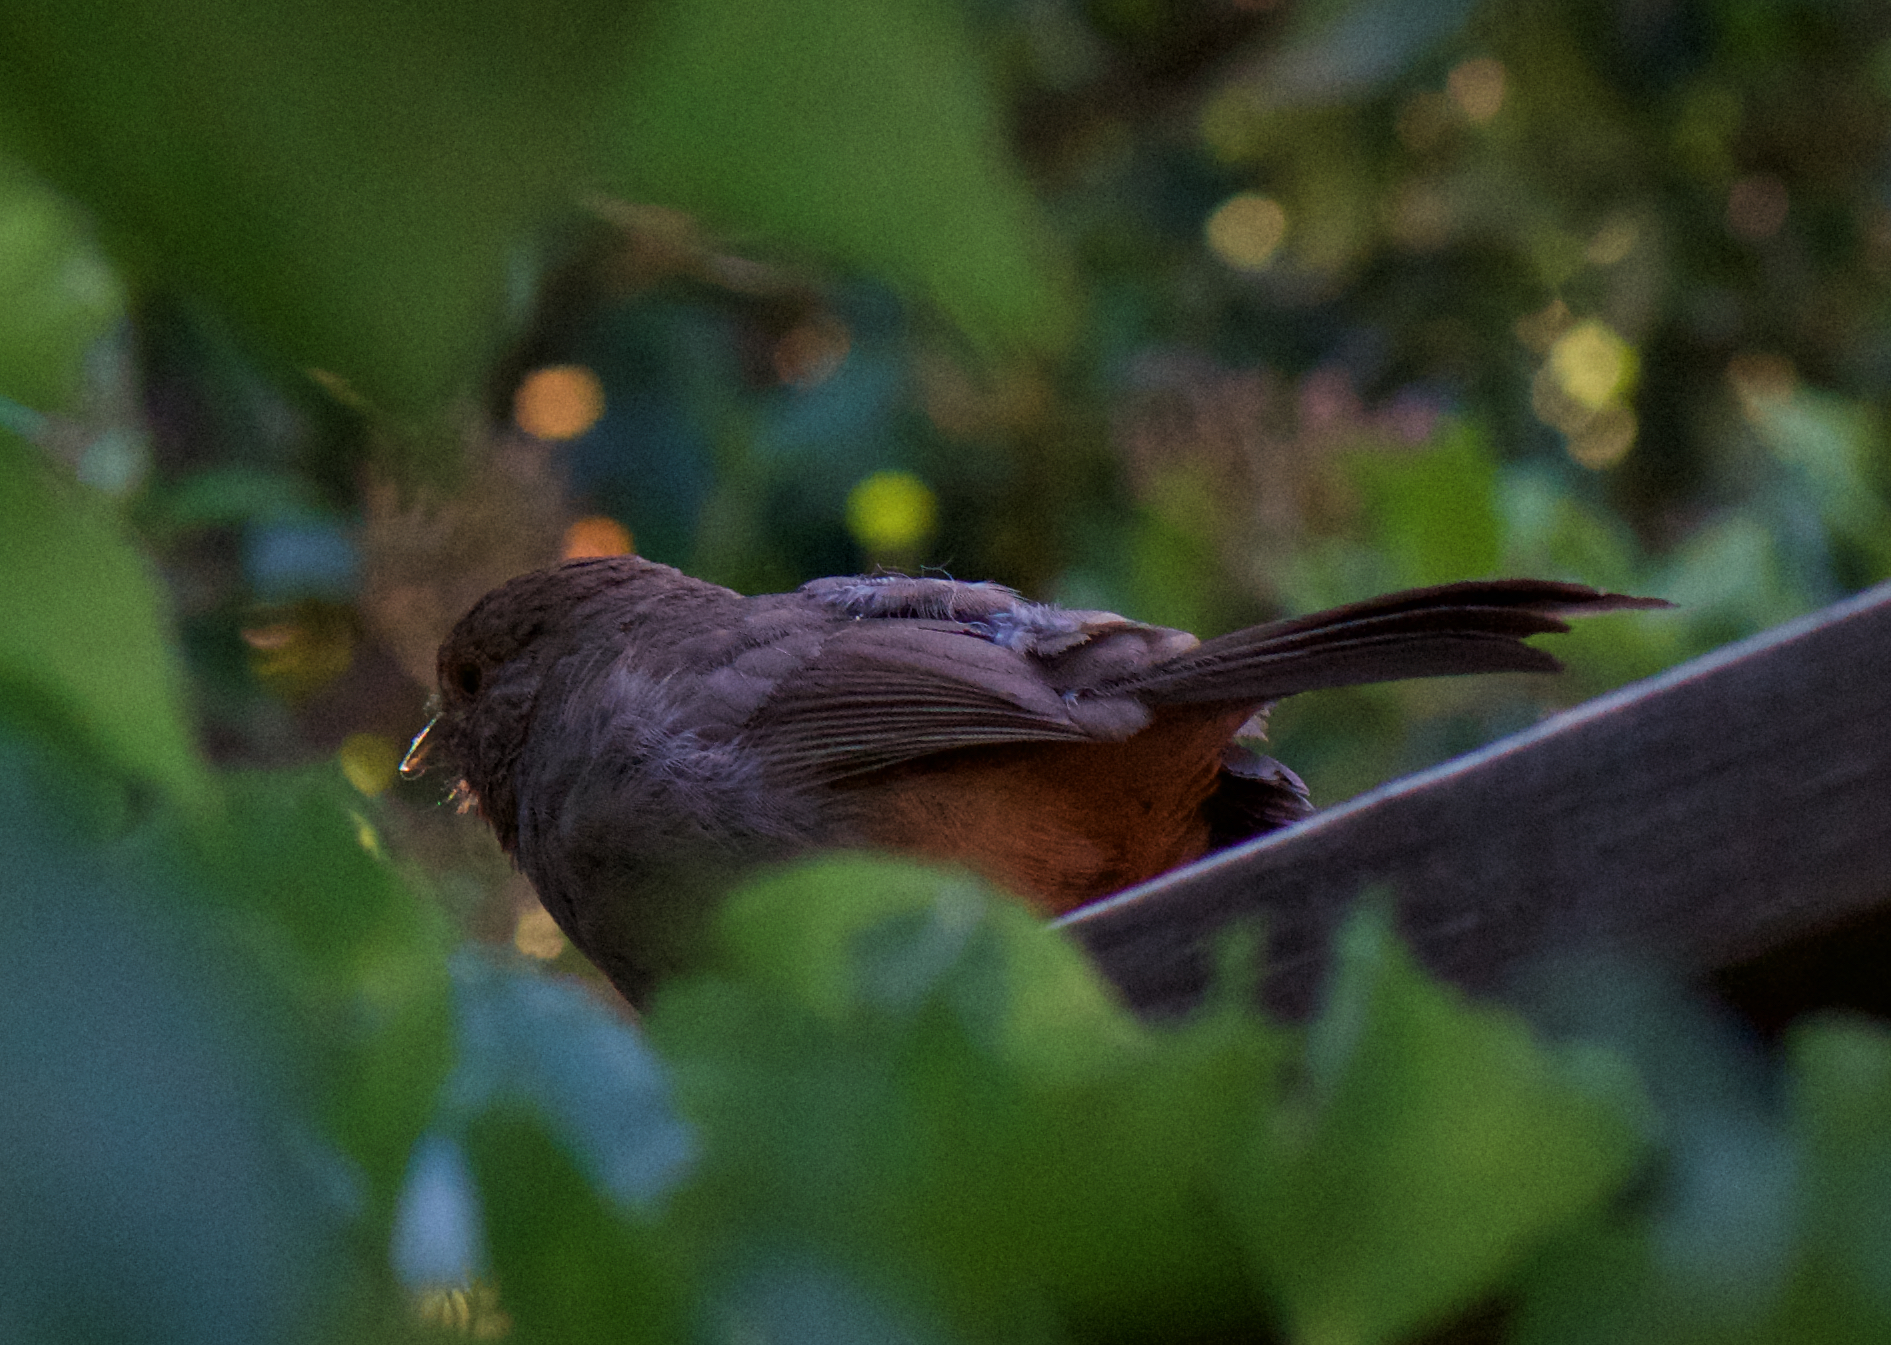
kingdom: Animalia
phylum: Chordata
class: Aves
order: Passeriformes
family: Passerellidae
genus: Melozone
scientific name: Melozone crissalis
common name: California towhee
